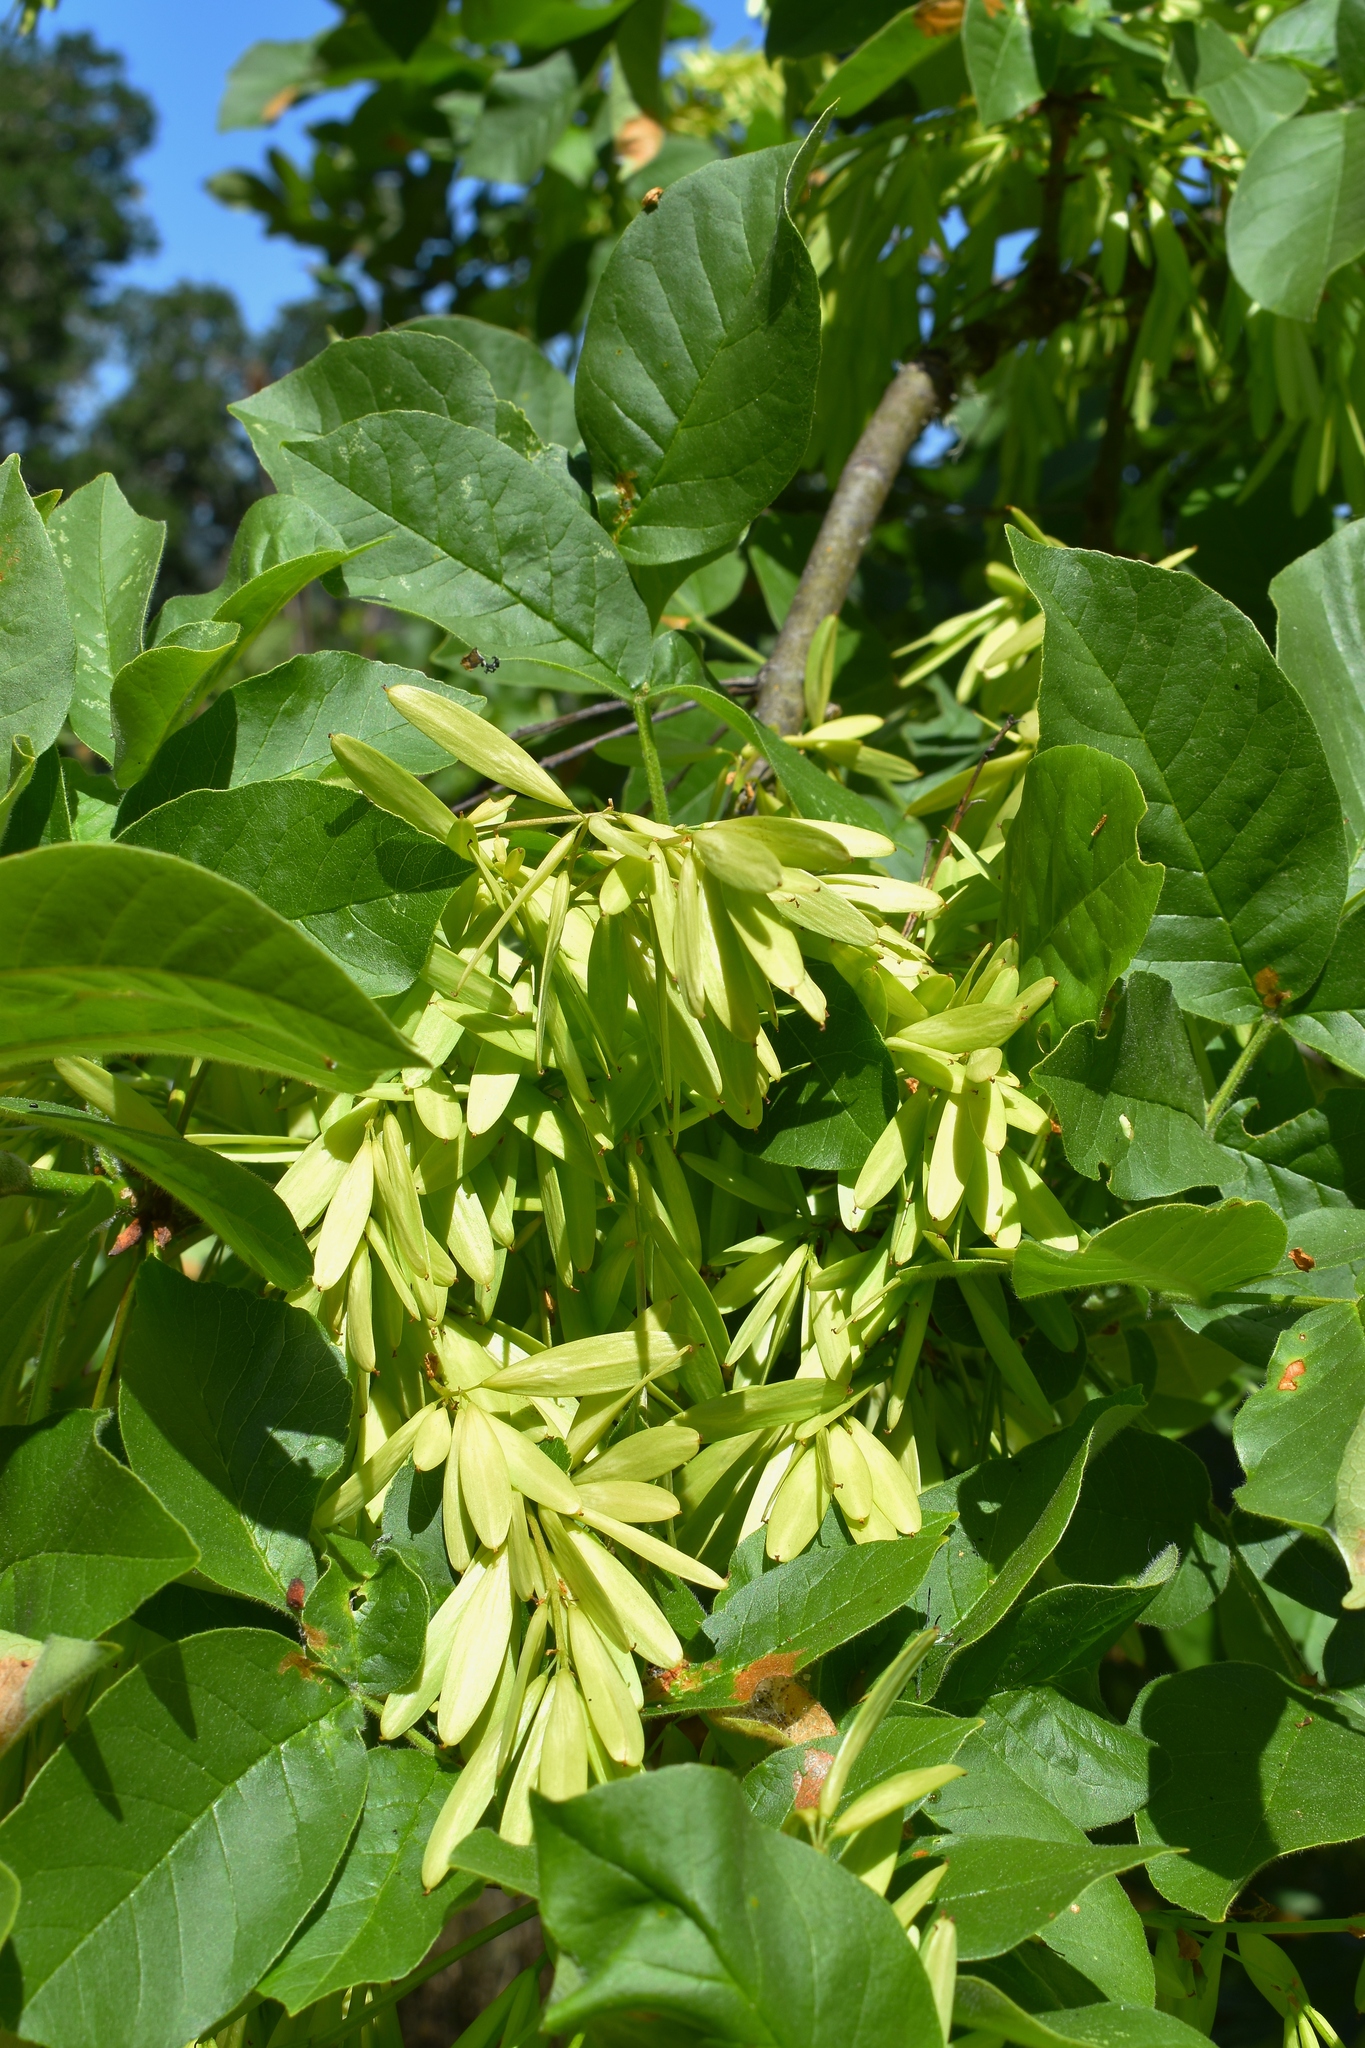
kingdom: Plantae
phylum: Tracheophyta
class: Magnoliopsida
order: Lamiales
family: Oleaceae
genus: Fraxinus
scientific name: Fraxinus latifolia
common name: Oregon ash
